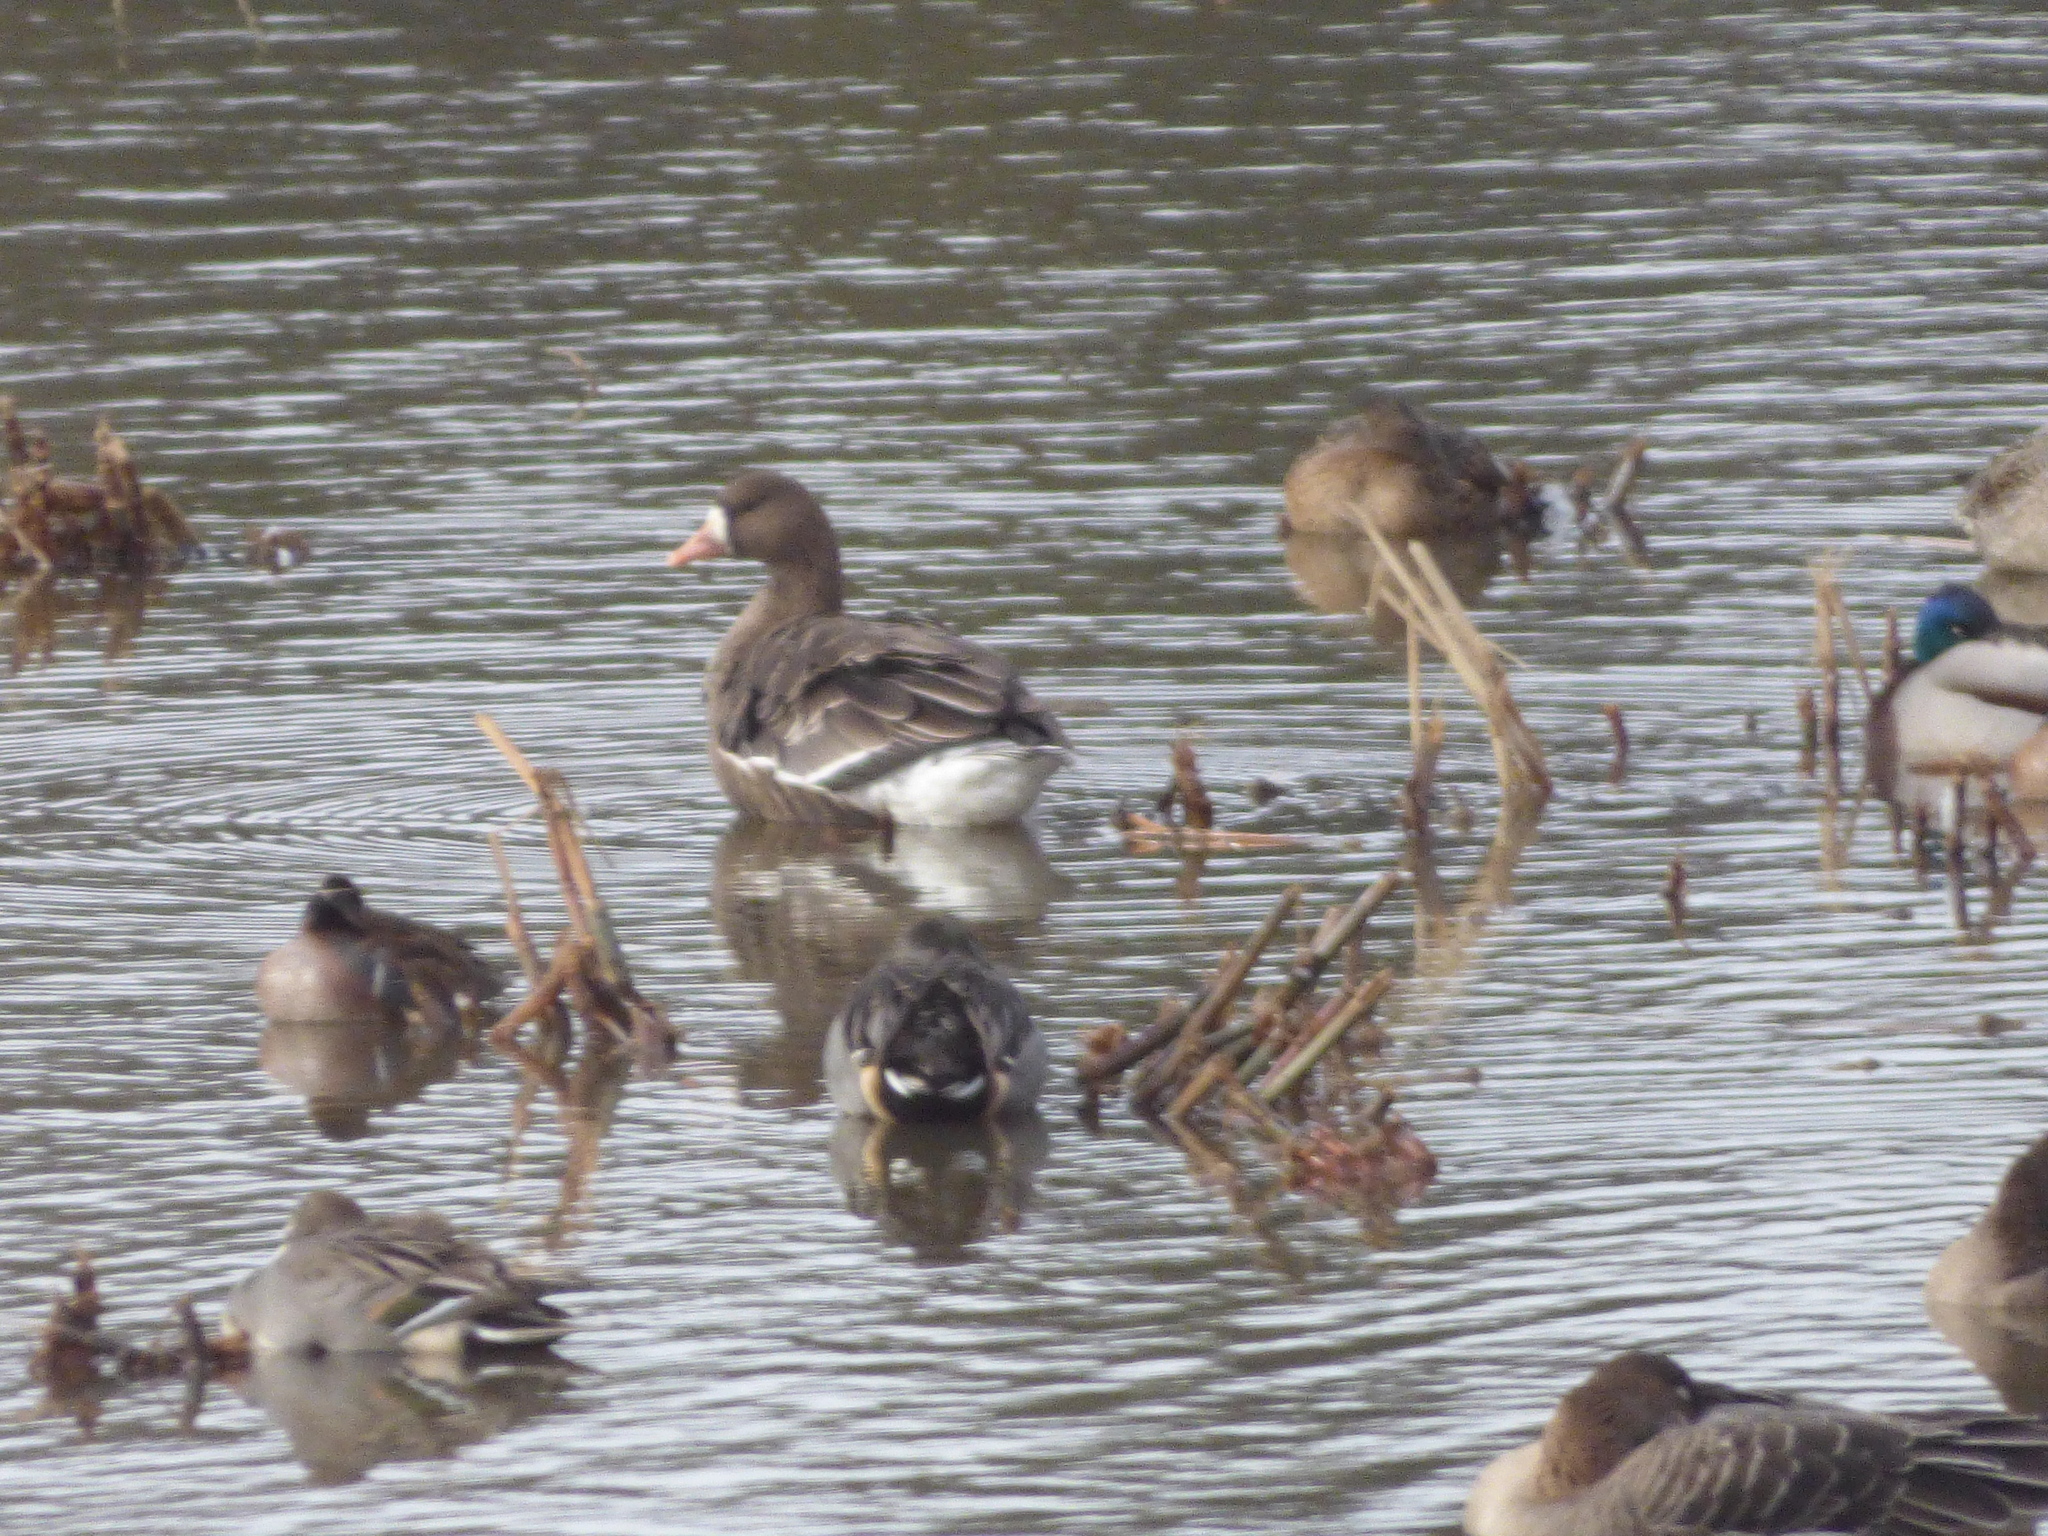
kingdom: Animalia
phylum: Chordata
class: Aves
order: Anseriformes
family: Anatidae
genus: Anser
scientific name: Anser albifrons
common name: Greater white-fronted goose
